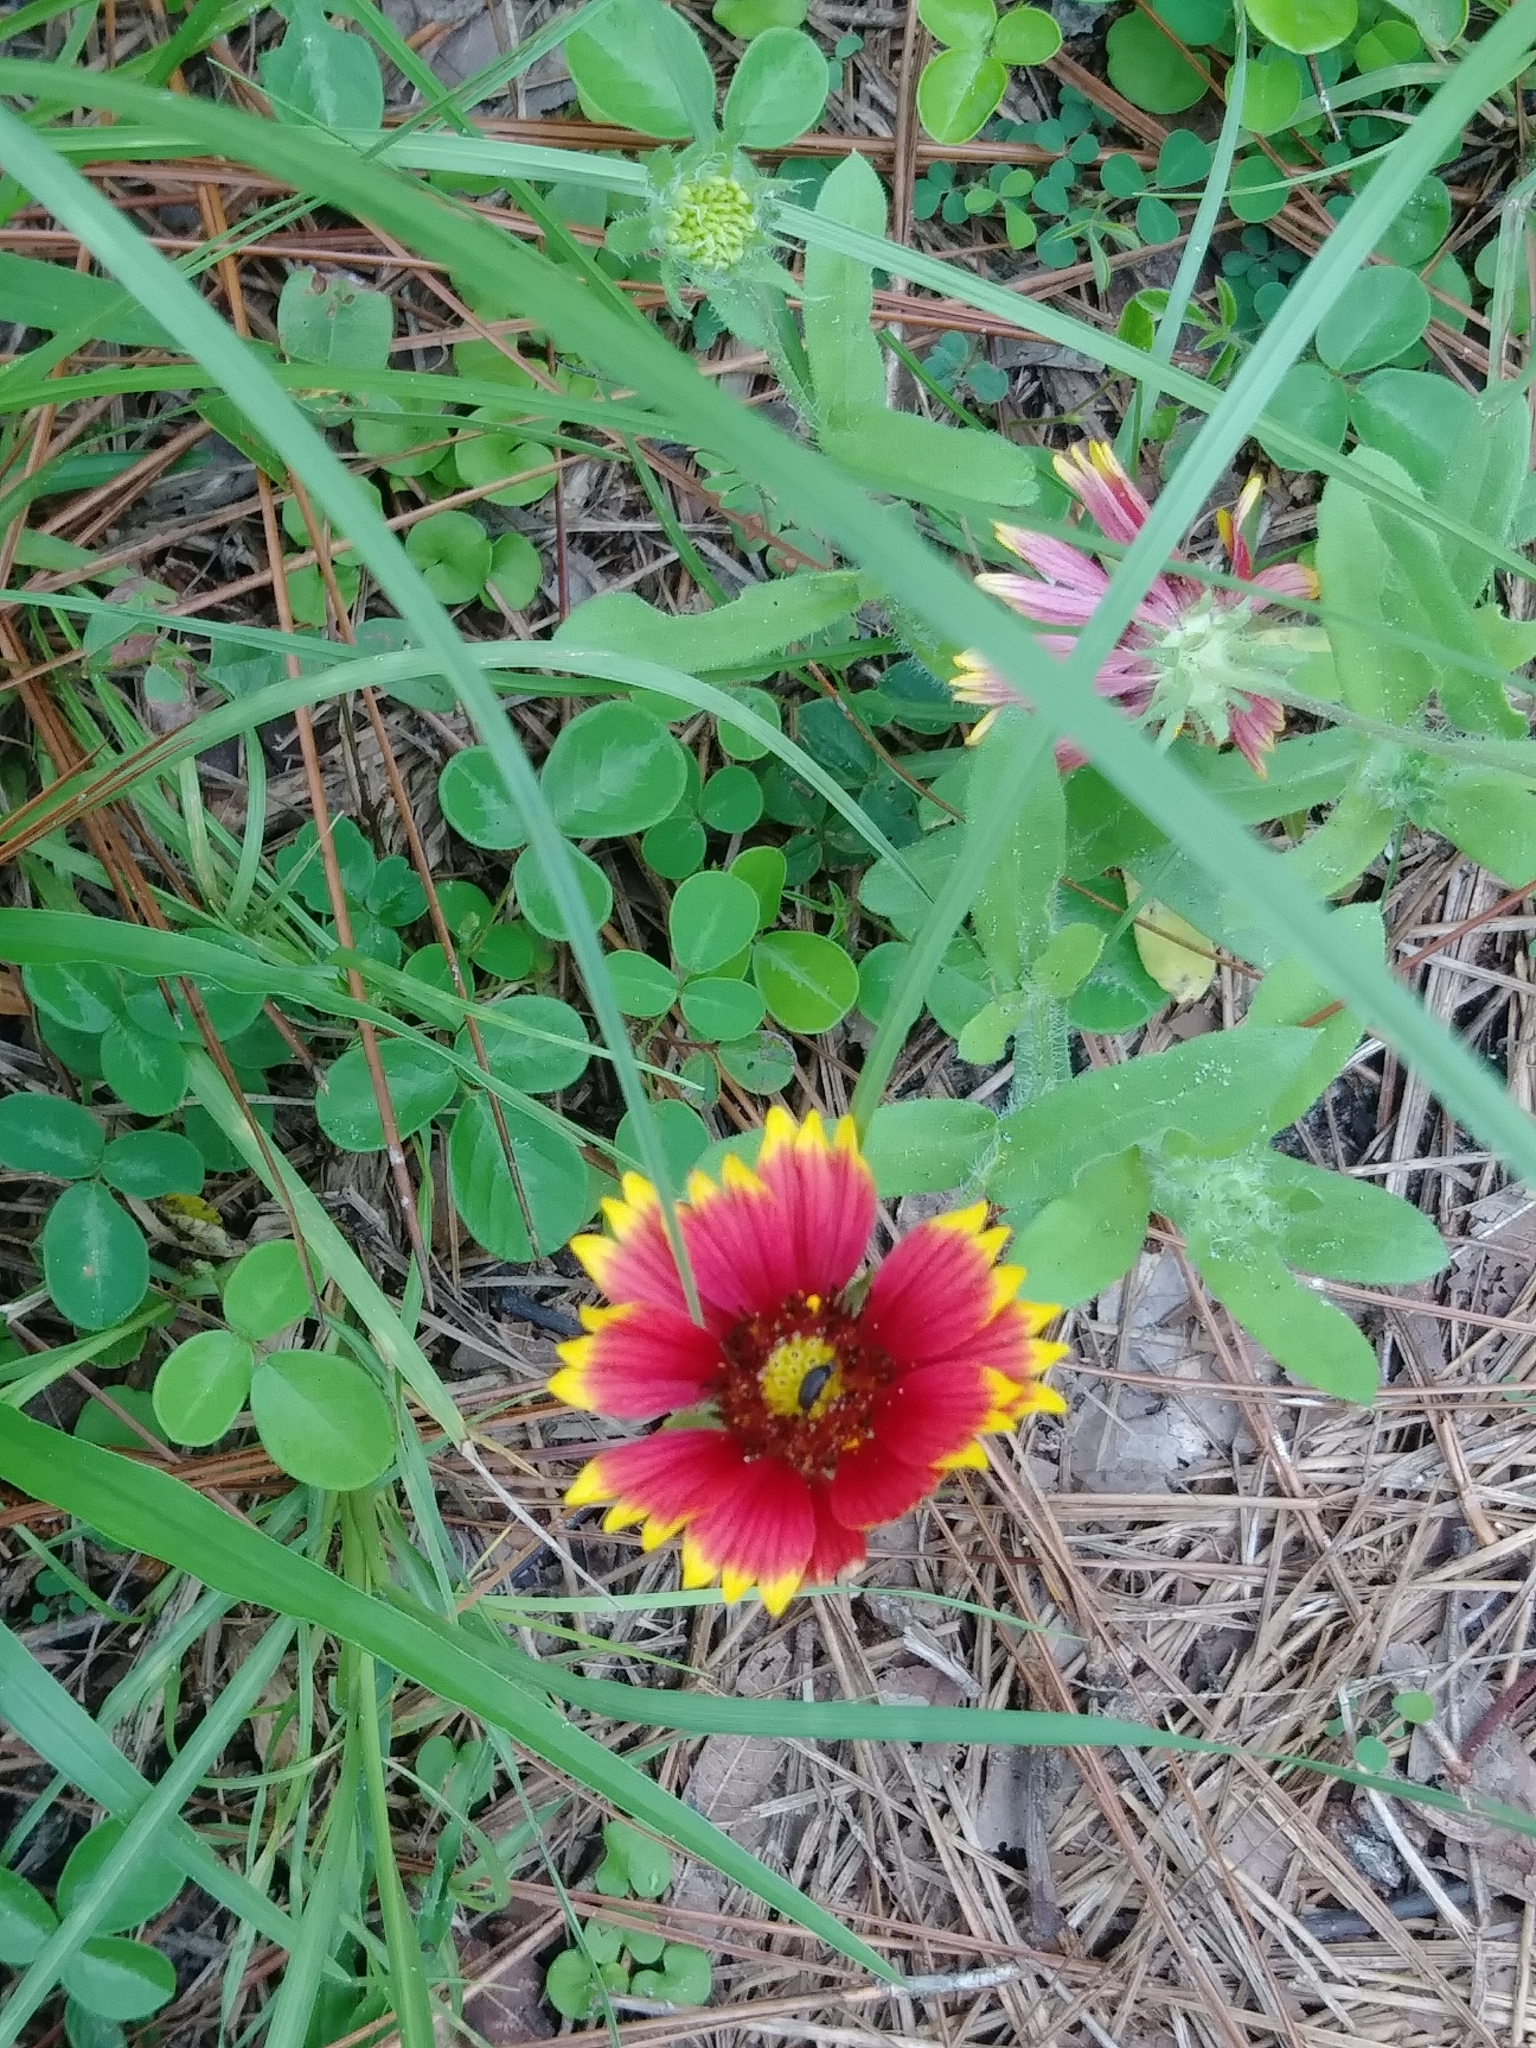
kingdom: Plantae
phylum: Tracheophyta
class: Magnoliopsida
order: Asterales
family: Asteraceae
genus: Gaillardia
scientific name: Gaillardia pulchella
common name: Firewheel
